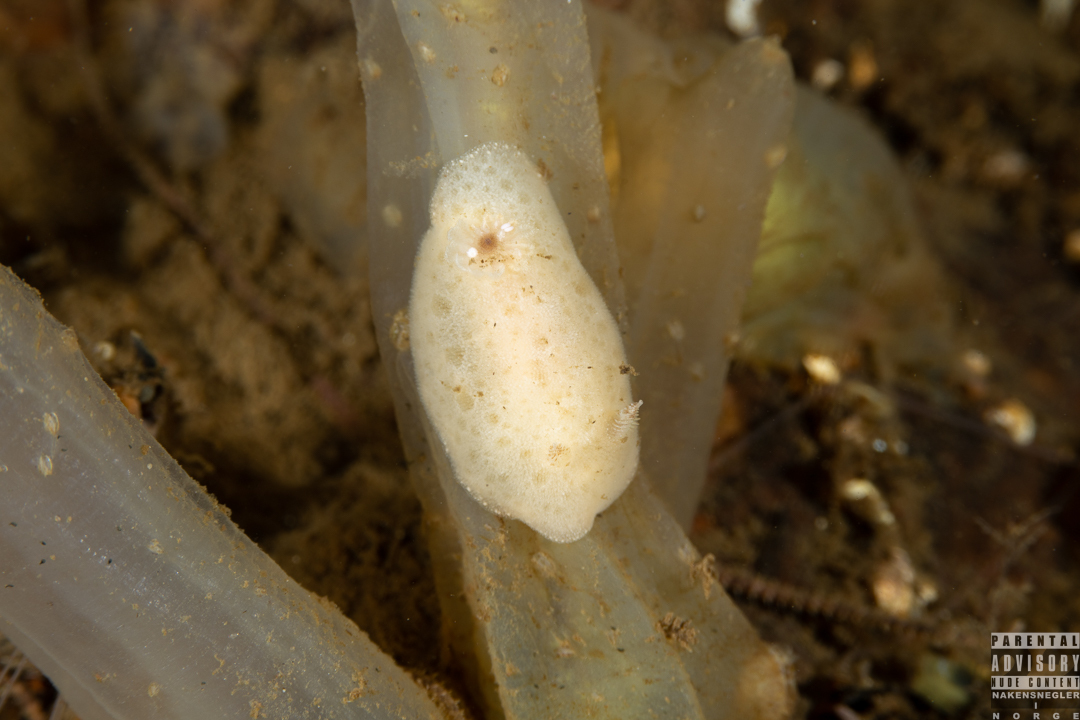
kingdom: Animalia
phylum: Mollusca
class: Gastropoda
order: Nudibranchia
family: Discodorididae
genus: Jorunna
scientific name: Jorunna tomentosa
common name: Grey sea slug
